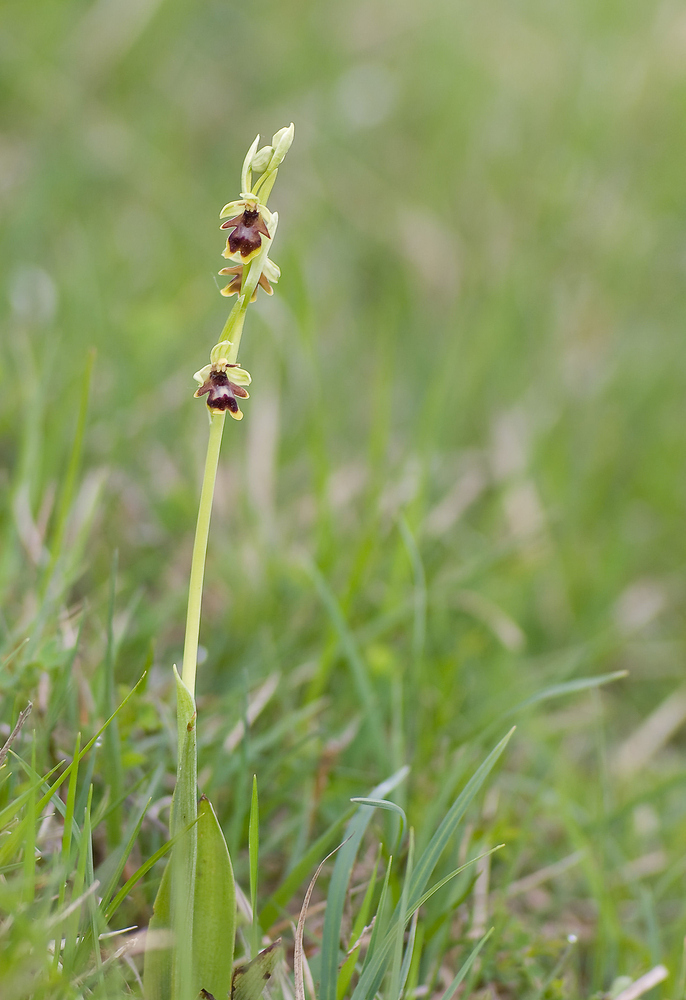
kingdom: Plantae
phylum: Tracheophyta
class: Liliopsida
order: Asparagales
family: Orchidaceae
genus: Ophrys
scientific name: Ophrys insectifera
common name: Fly orchid
